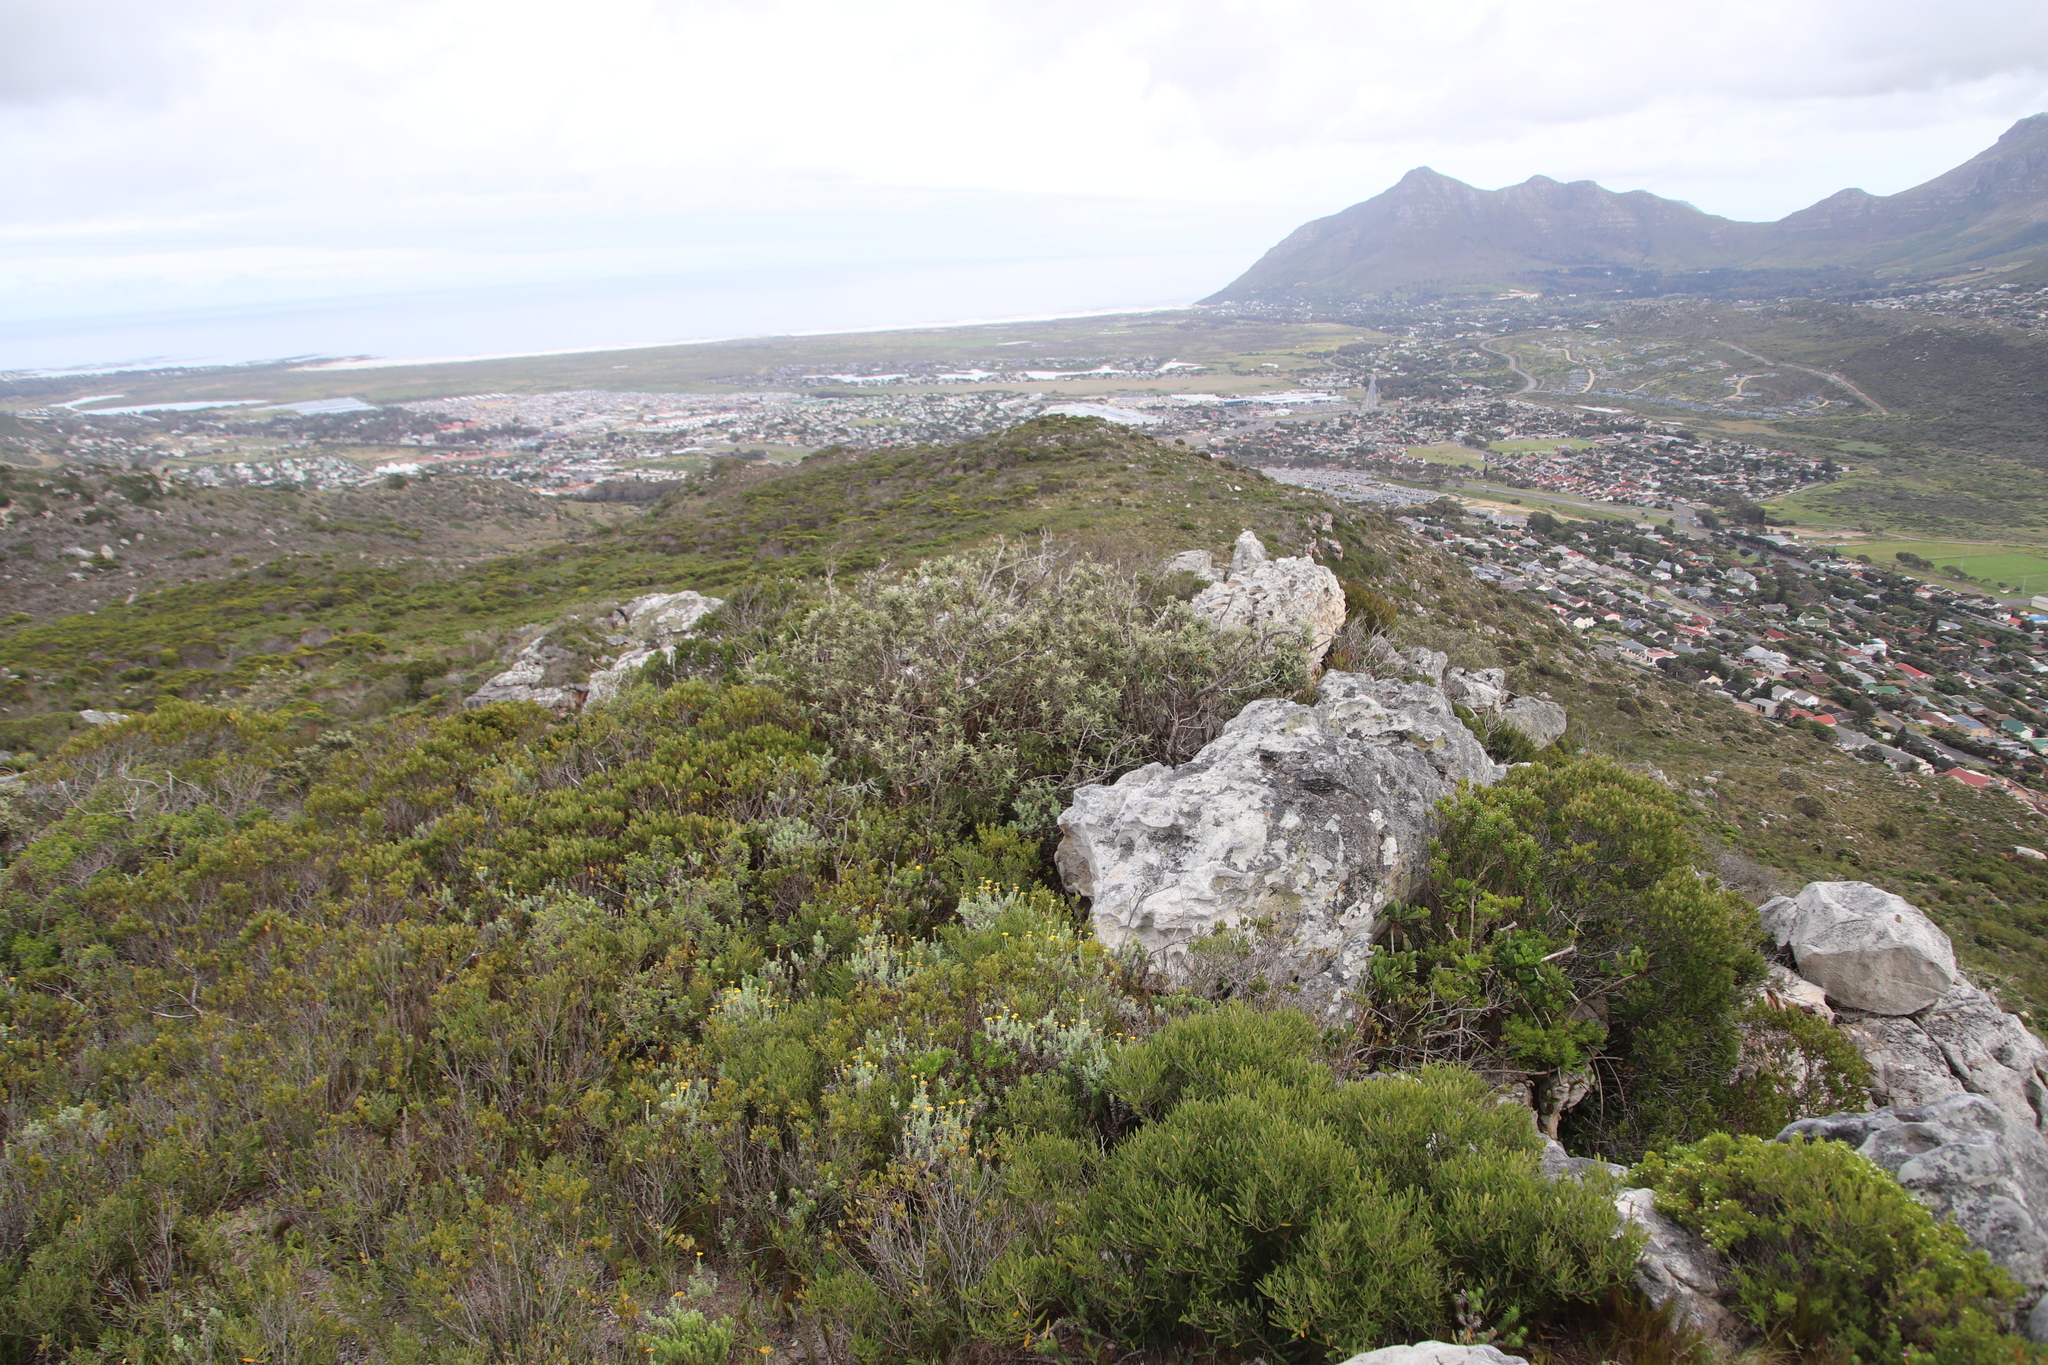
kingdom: Plantae
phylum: Tracheophyta
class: Magnoliopsida
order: Asterales
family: Asteraceae
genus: Tarchonanthus
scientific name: Tarchonanthus littoralis
